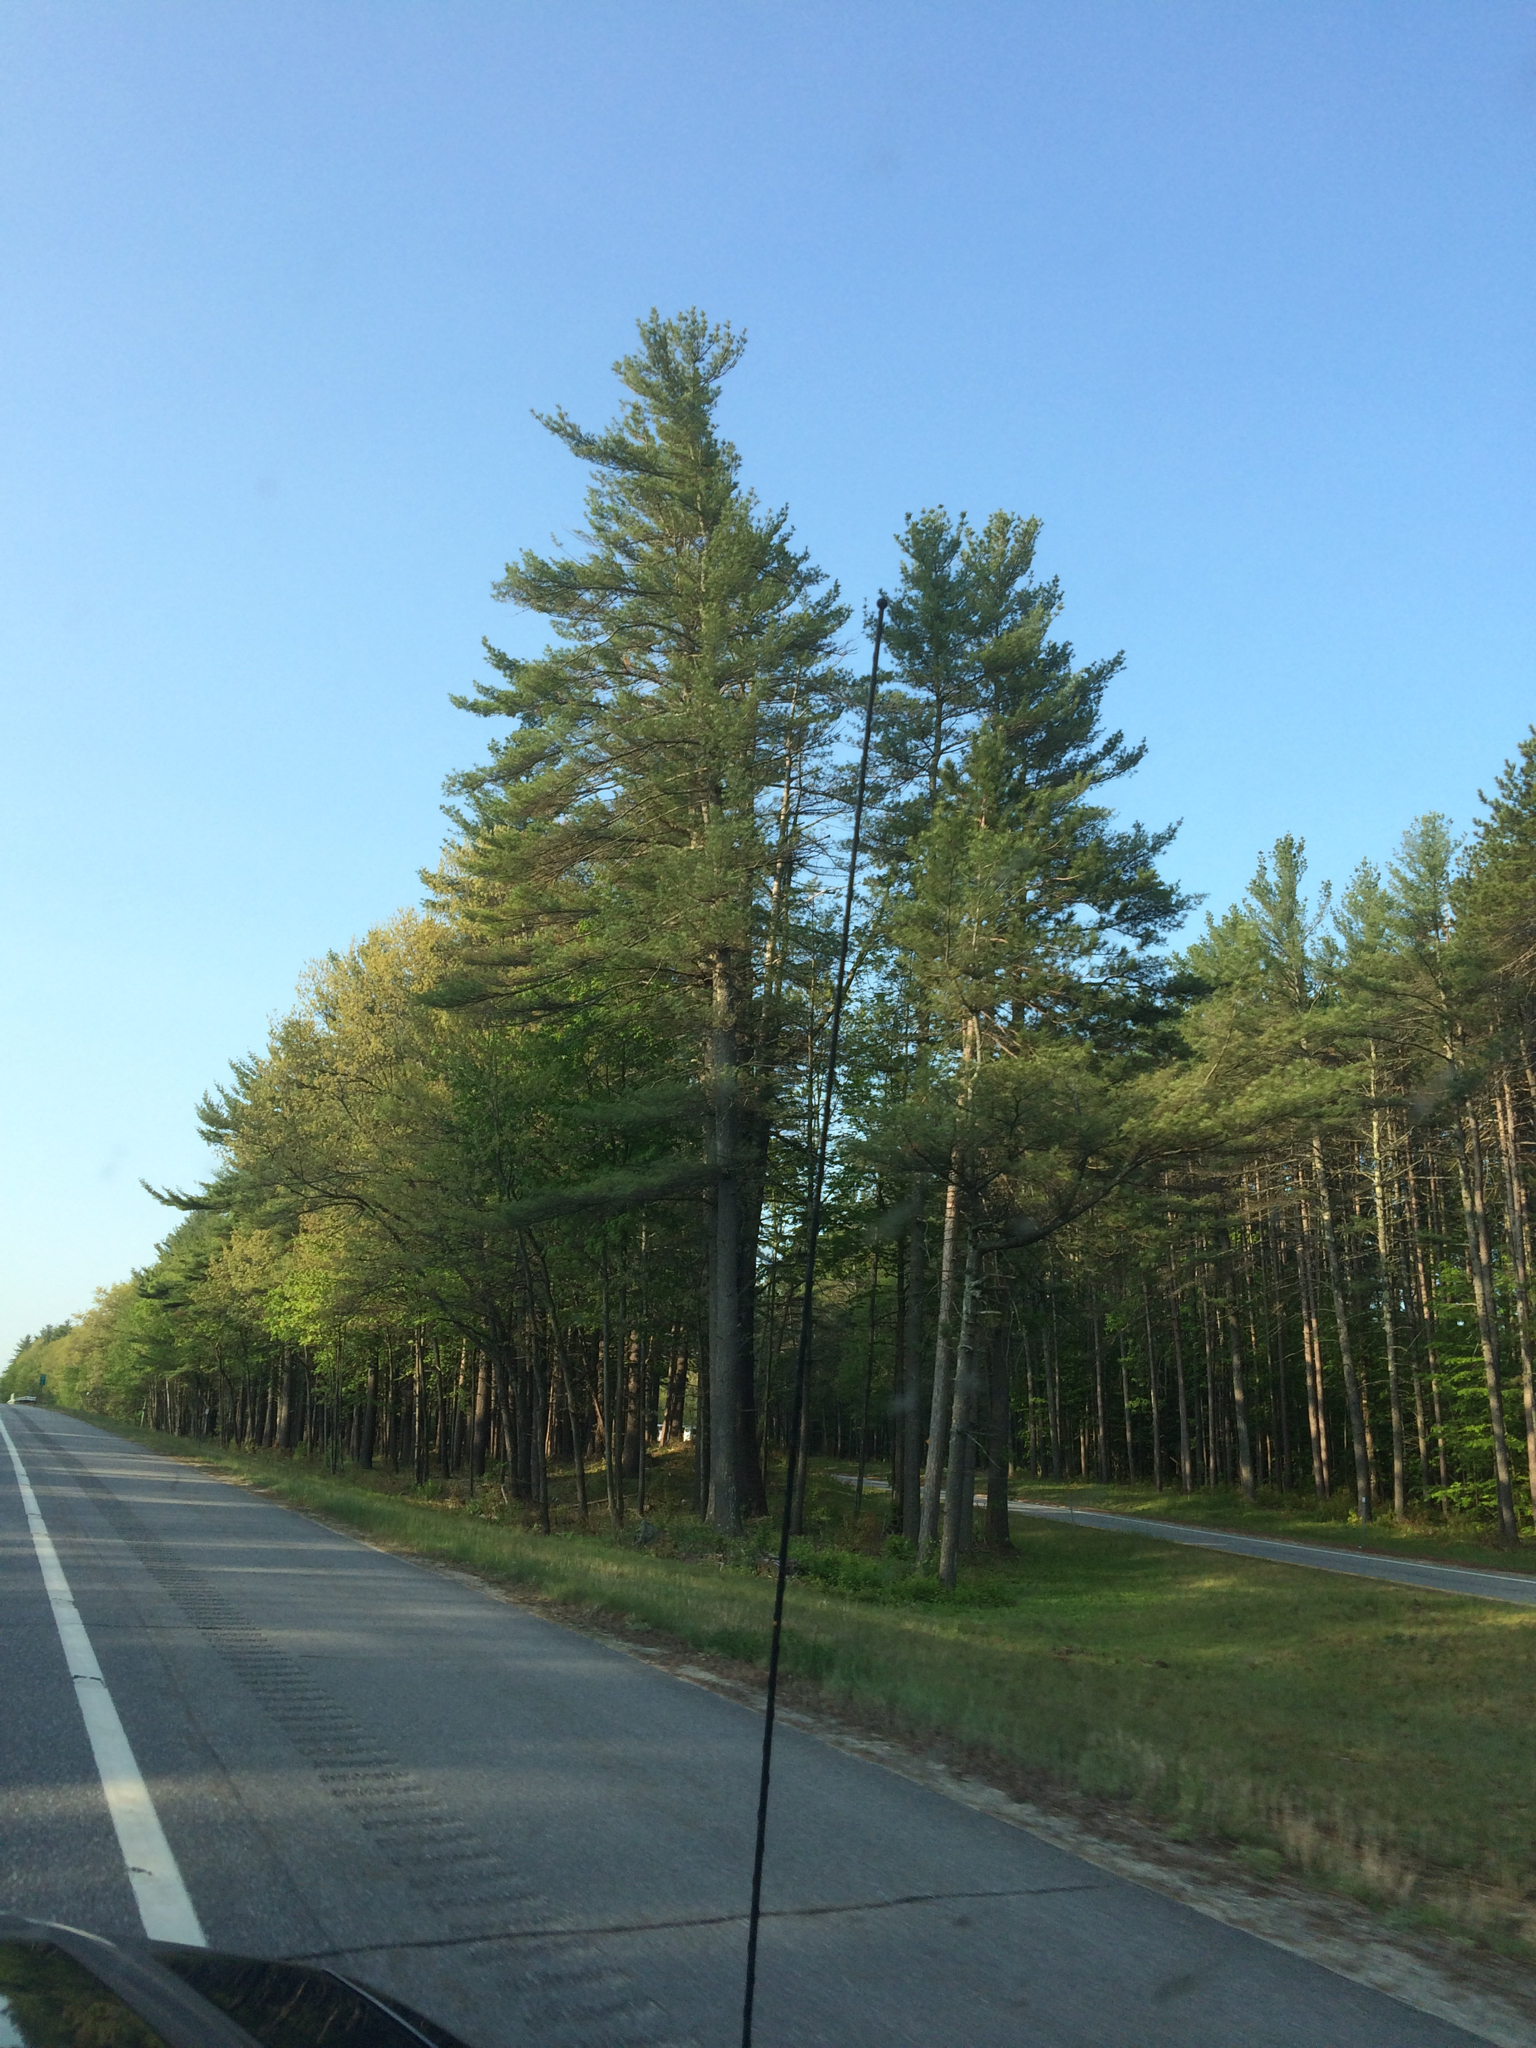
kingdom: Plantae
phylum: Tracheophyta
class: Pinopsida
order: Pinales
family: Pinaceae
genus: Pinus
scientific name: Pinus strobus
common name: Weymouth pine
